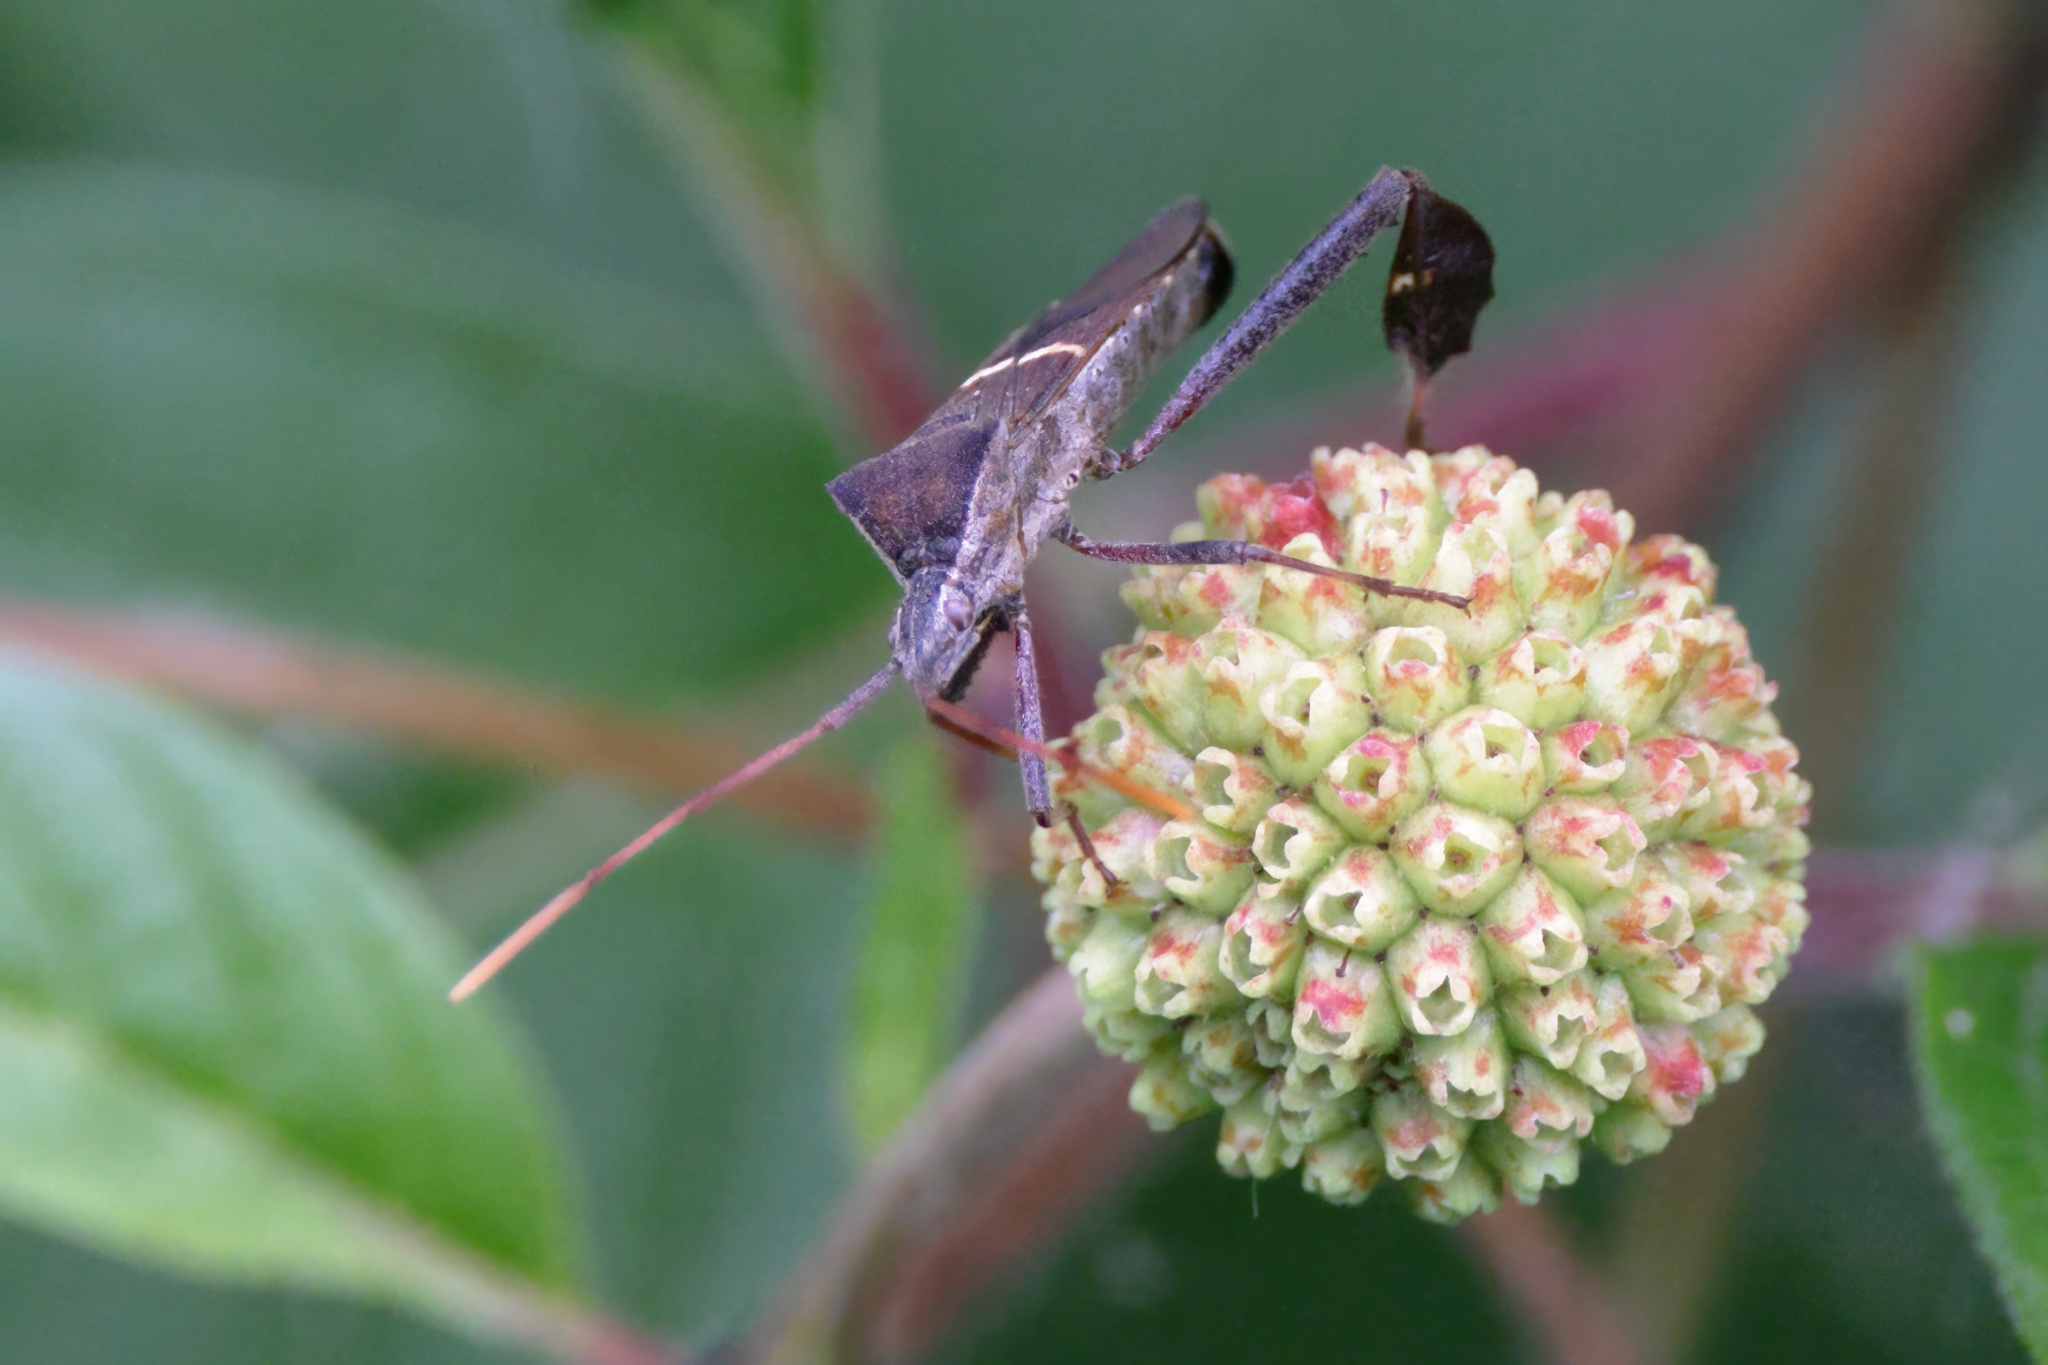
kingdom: Animalia
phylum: Arthropoda
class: Insecta
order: Hemiptera
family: Coreidae
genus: Leptoglossus
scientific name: Leptoglossus phyllopus
